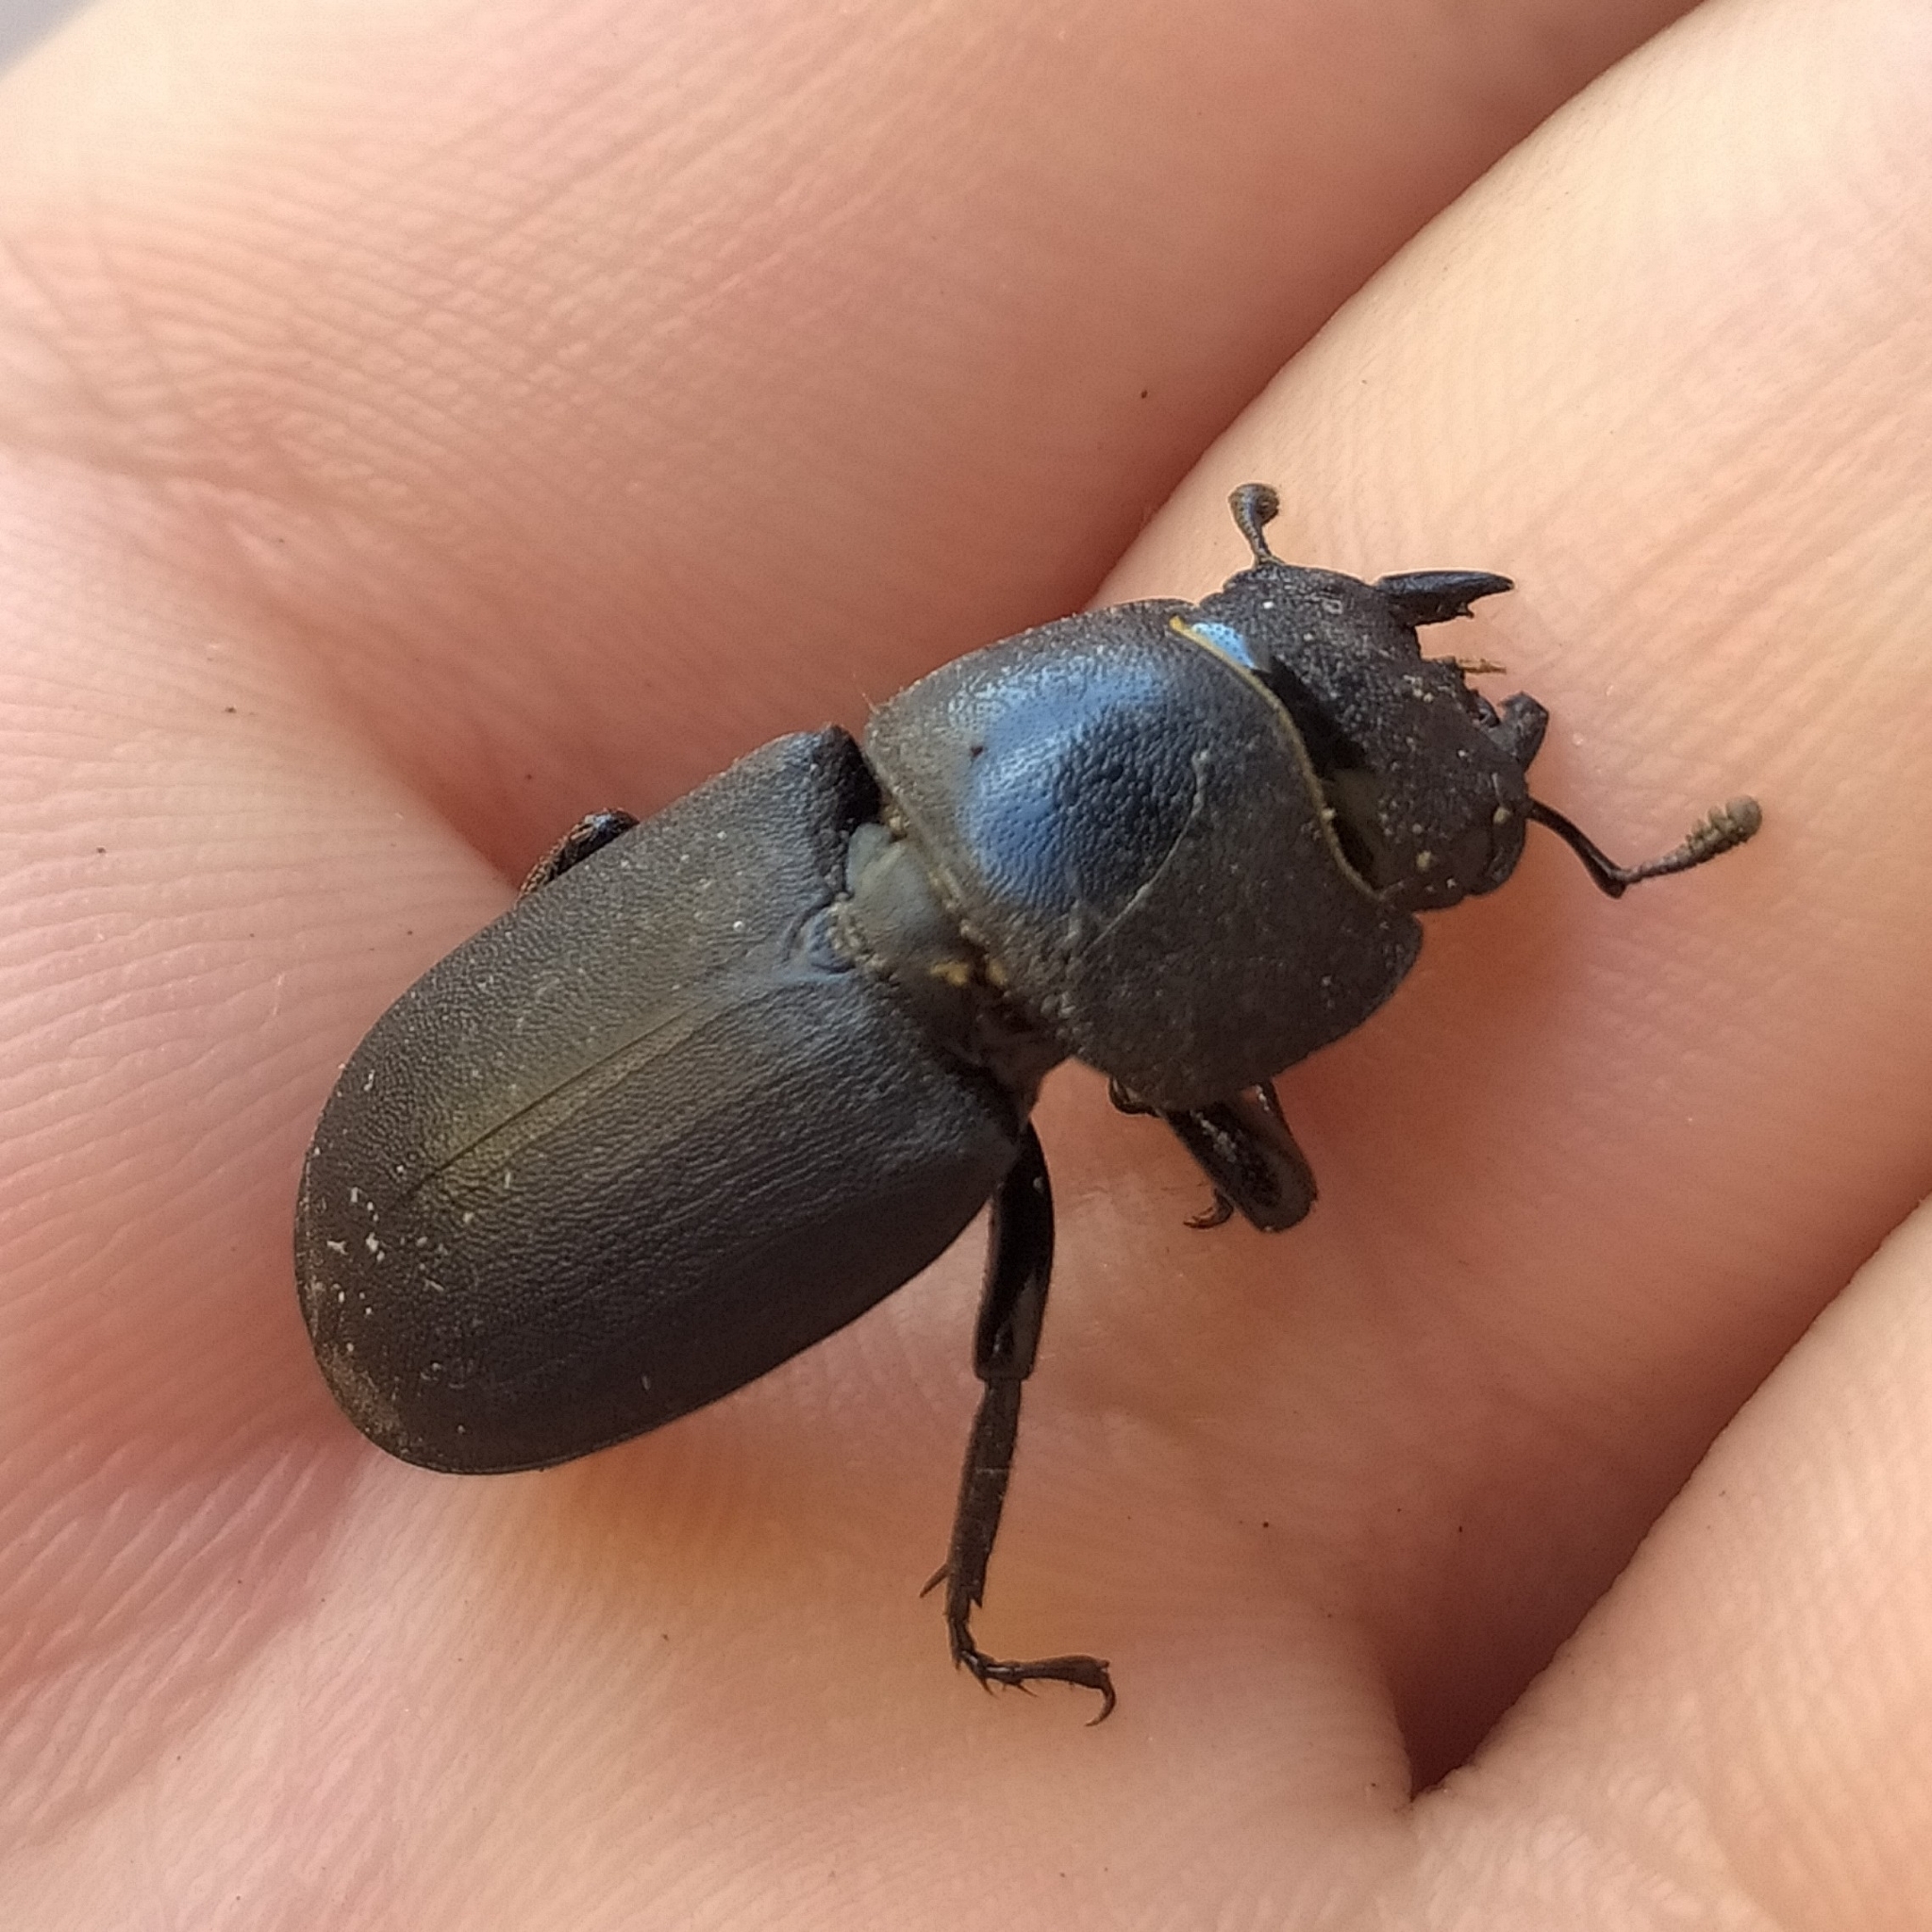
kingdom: Animalia
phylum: Arthropoda
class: Insecta
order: Coleoptera
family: Lucanidae
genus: Dorcus
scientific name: Dorcus parallelipipedus
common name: Lesser stag beetle
